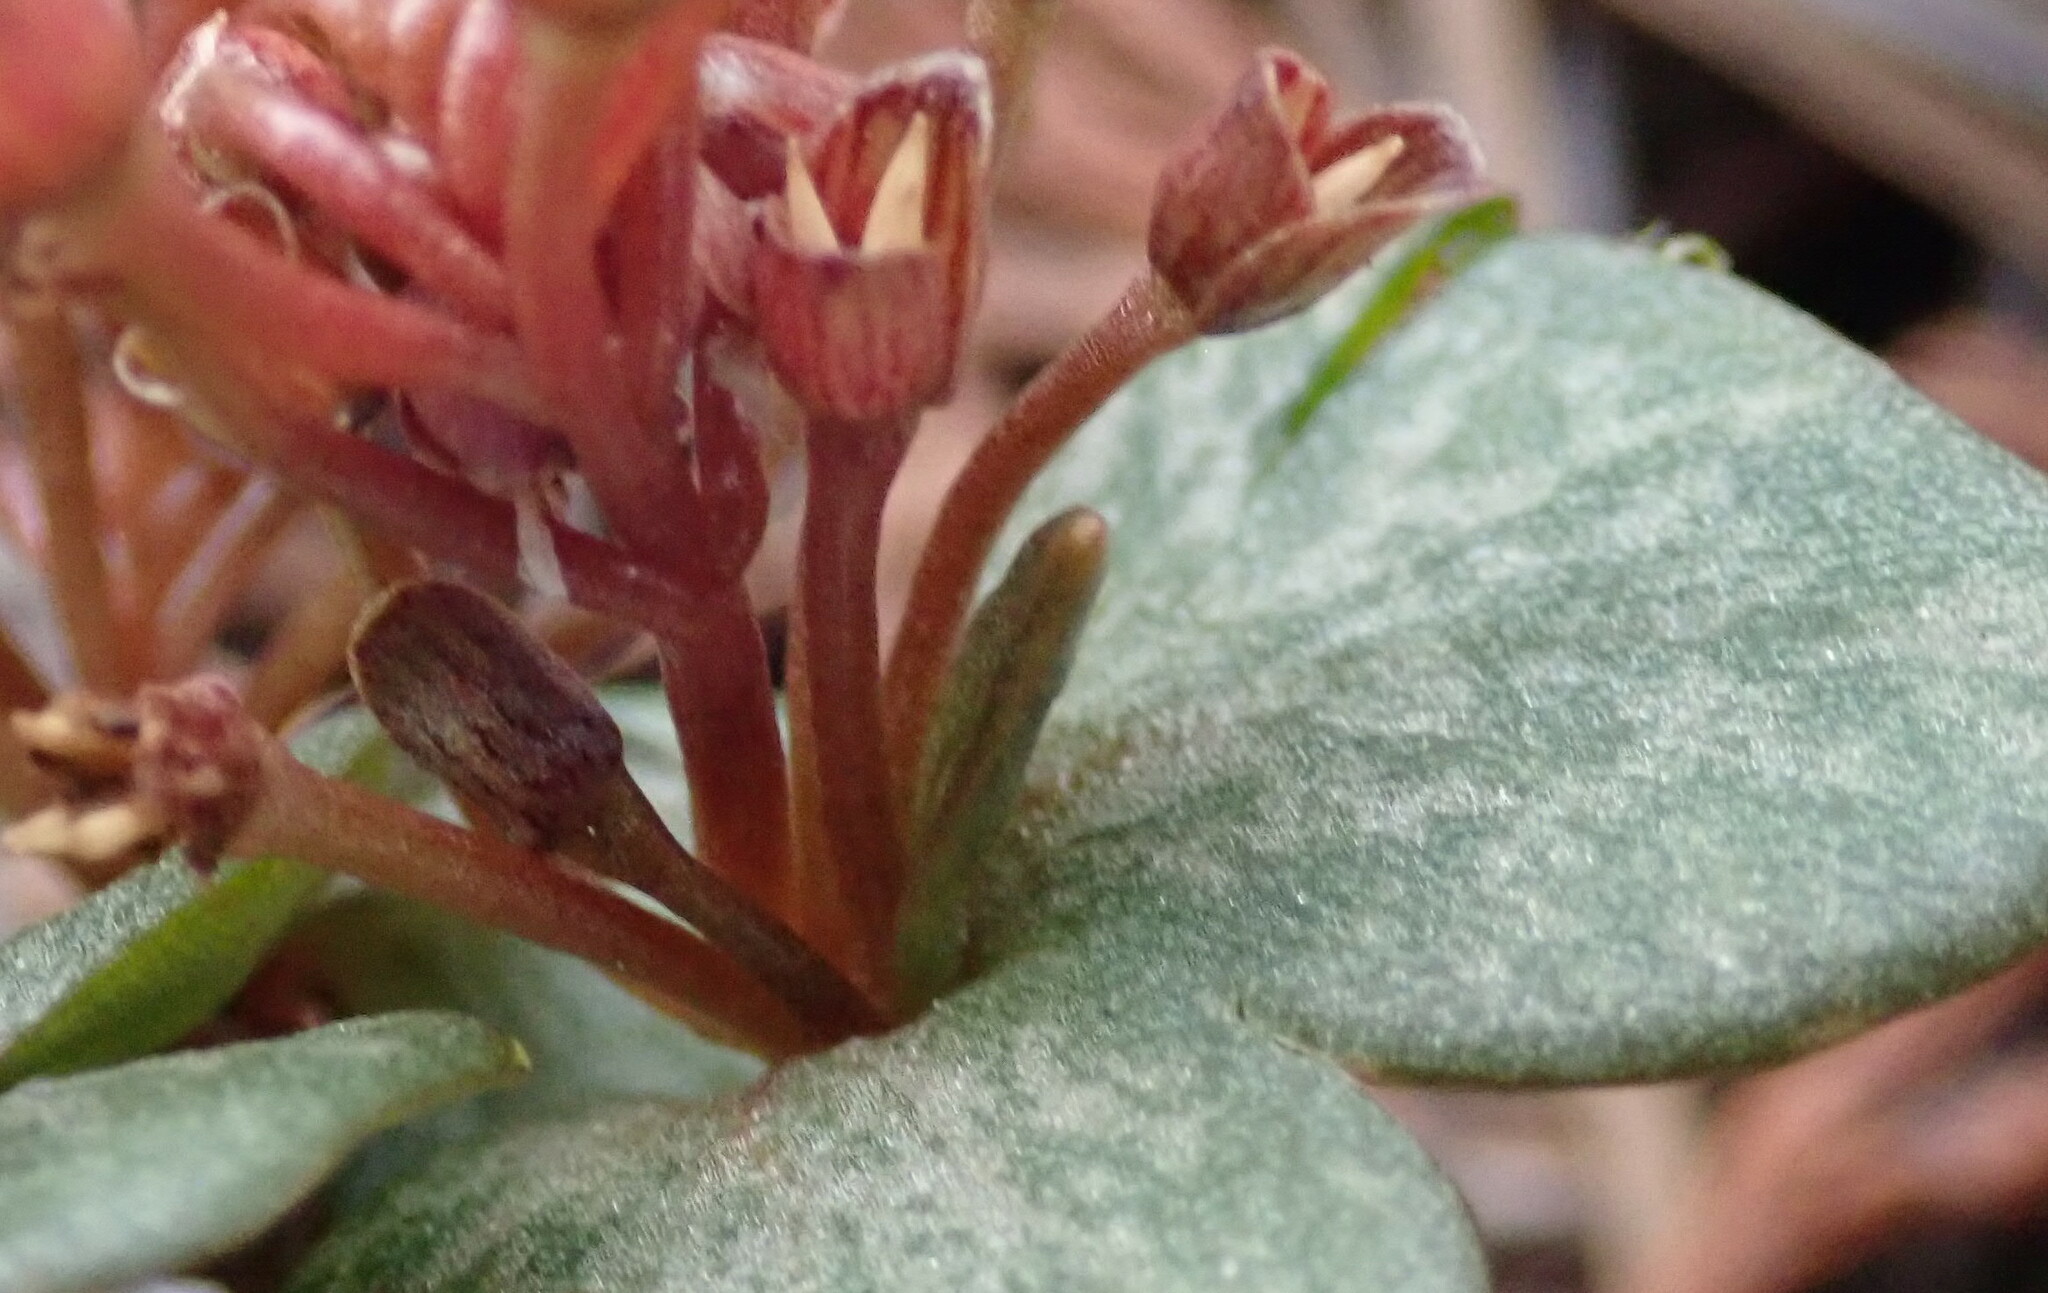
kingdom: Plantae
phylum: Tracheophyta
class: Magnoliopsida
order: Caryophyllales
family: Montiaceae
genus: Claytonia
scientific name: Claytonia rubra
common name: Erubescent miner's-lettuce
